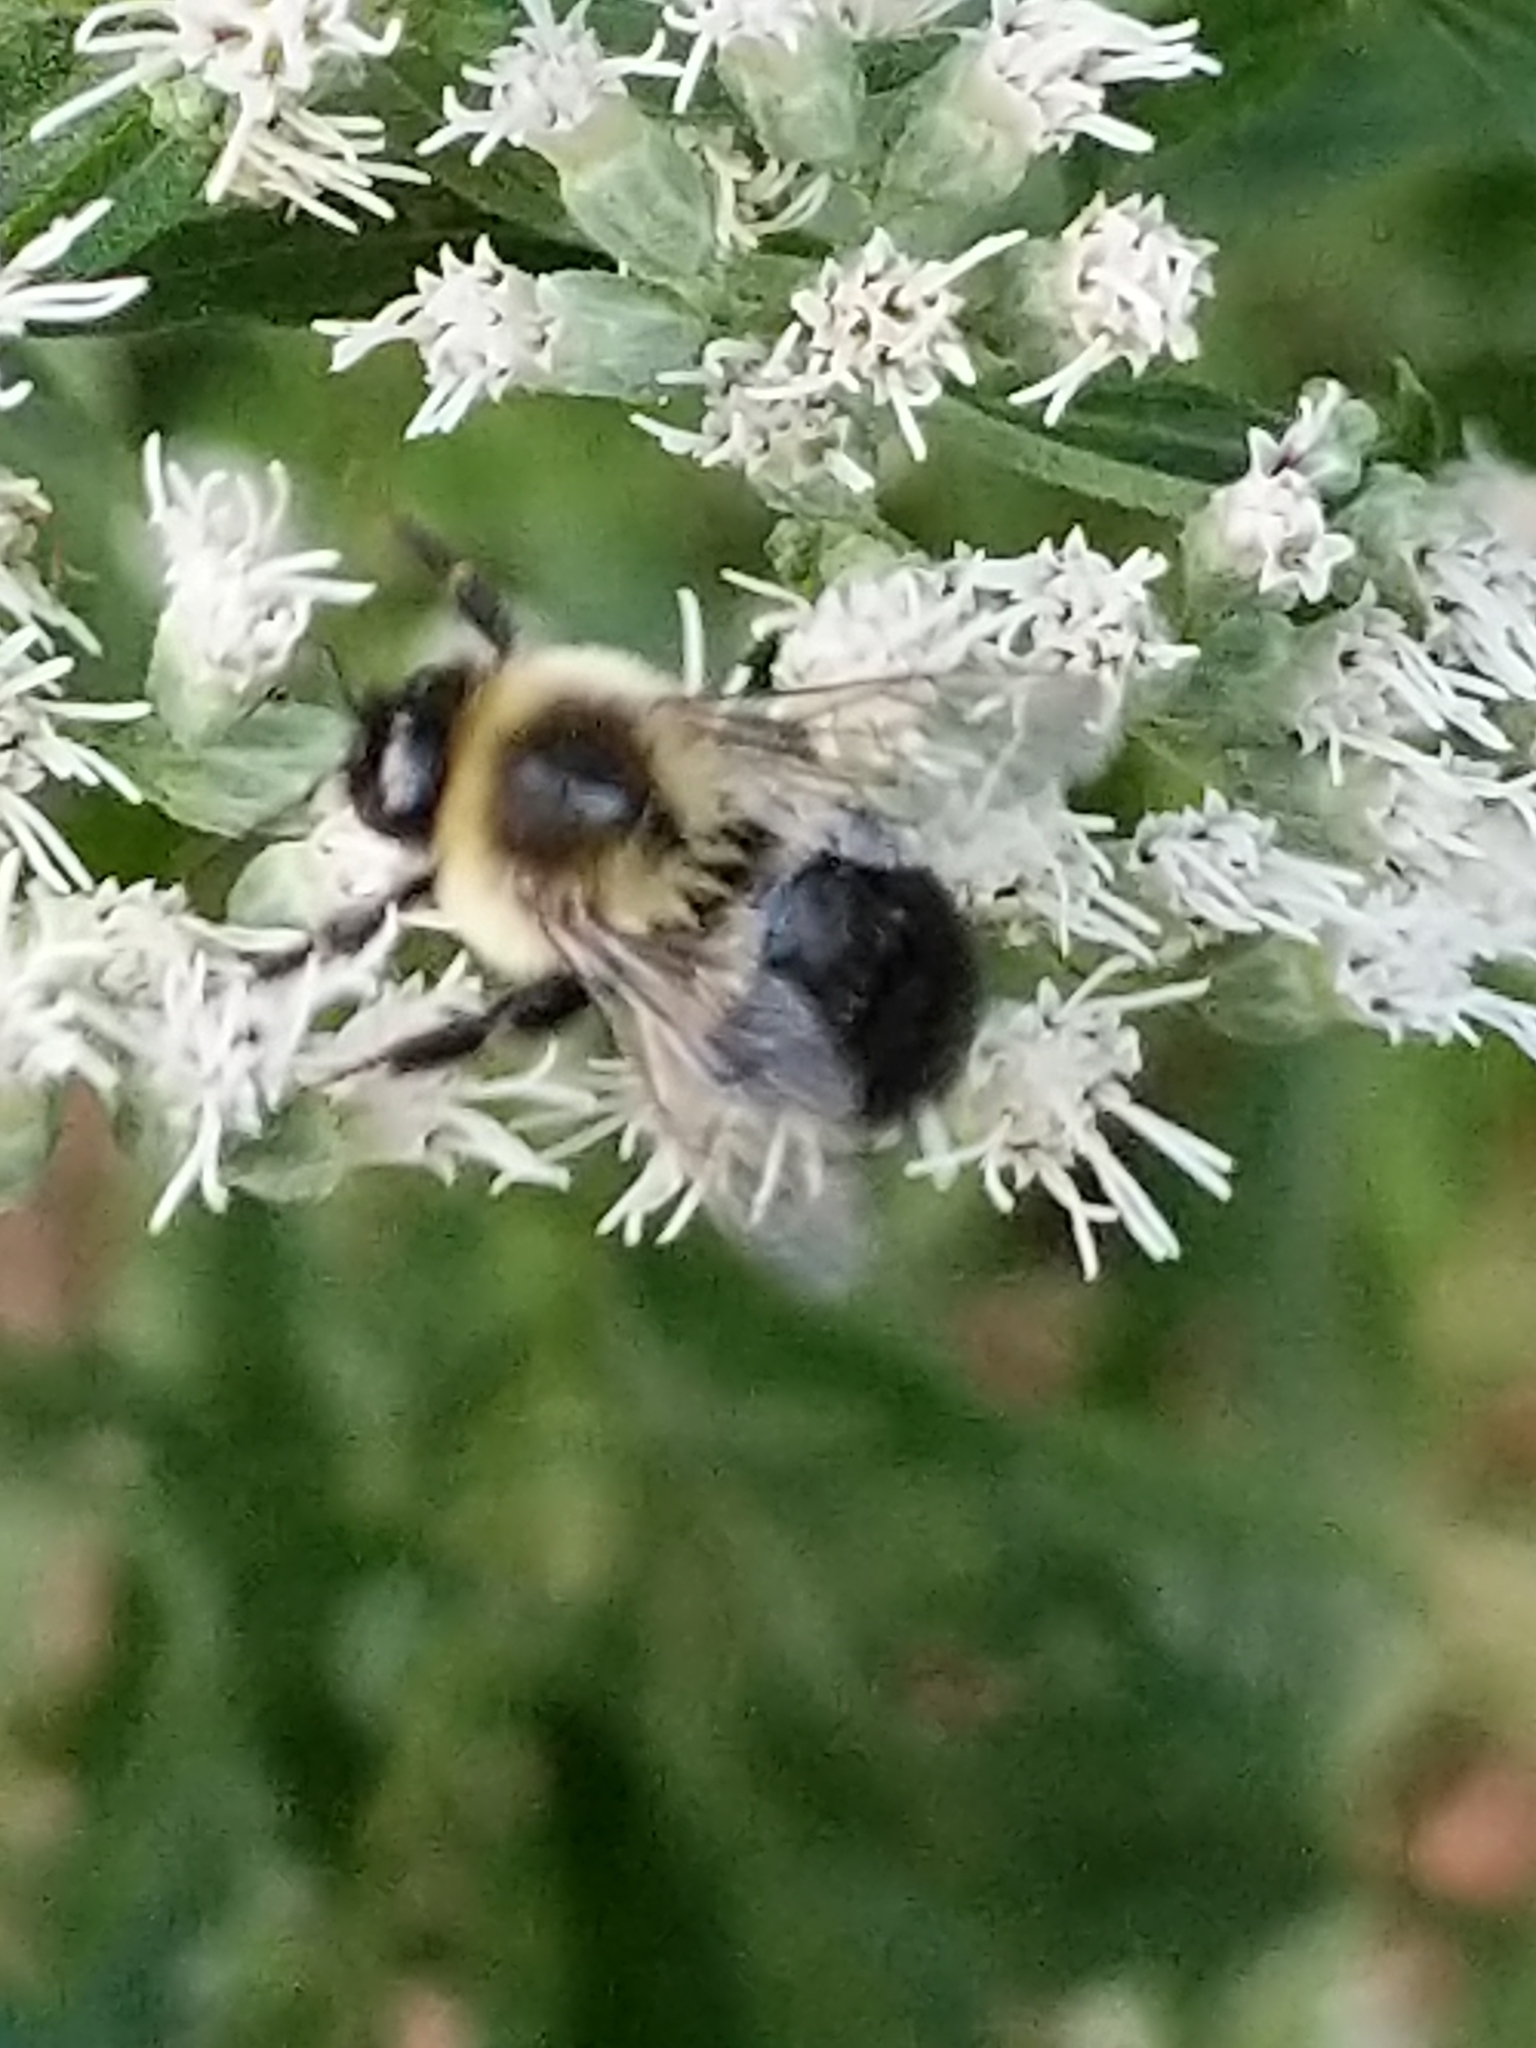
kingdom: Animalia
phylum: Arthropoda
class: Insecta
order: Hymenoptera
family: Apidae
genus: Bombus
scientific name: Bombus impatiens
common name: Common eastern bumble bee
